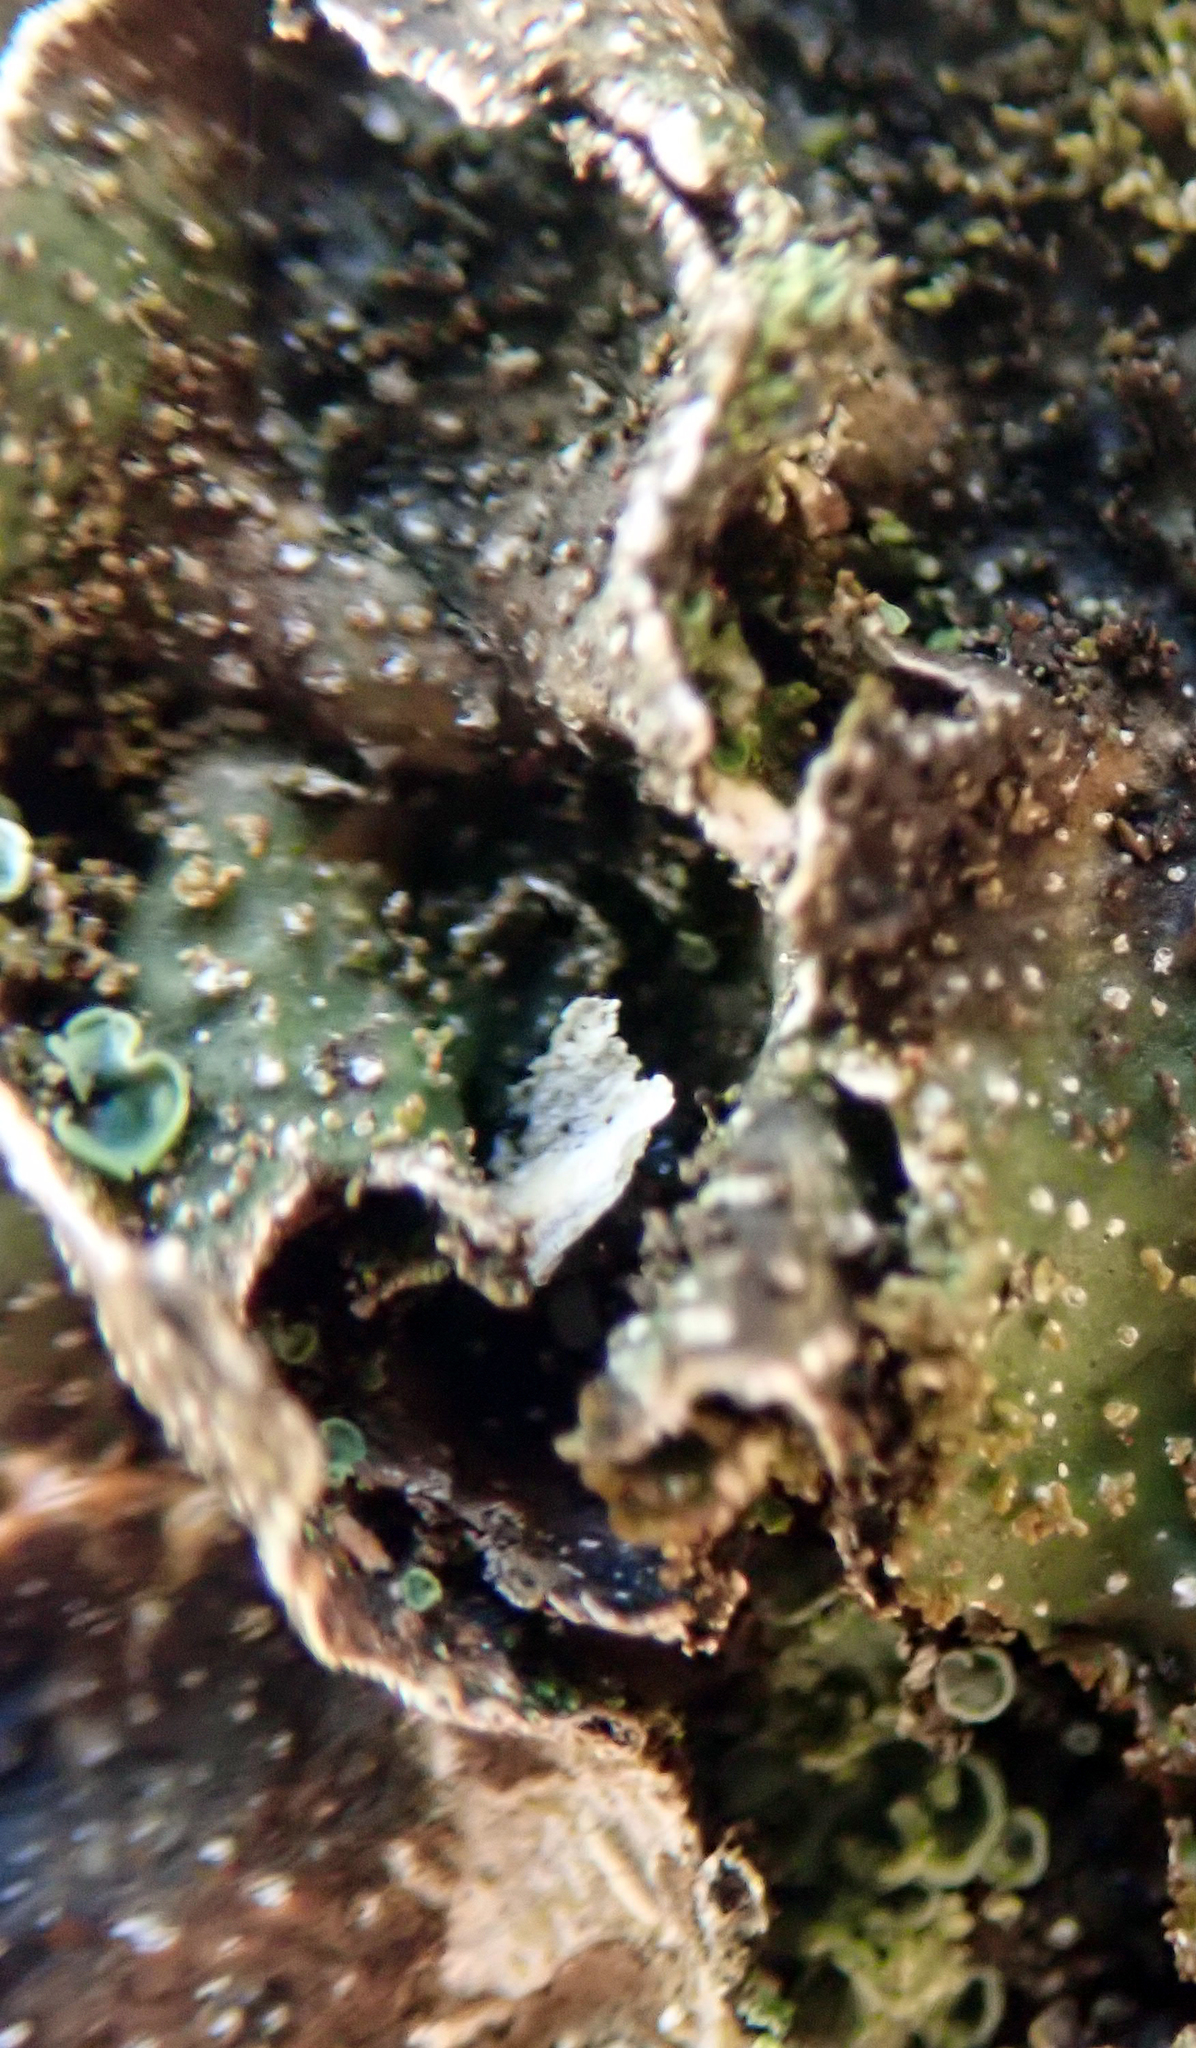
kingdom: Fungi
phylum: Ascomycota
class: Eurotiomycetes
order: Verrucariales
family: Verrucariaceae
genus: Normandina
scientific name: Normandina pulchella
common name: Elf ears lichen
